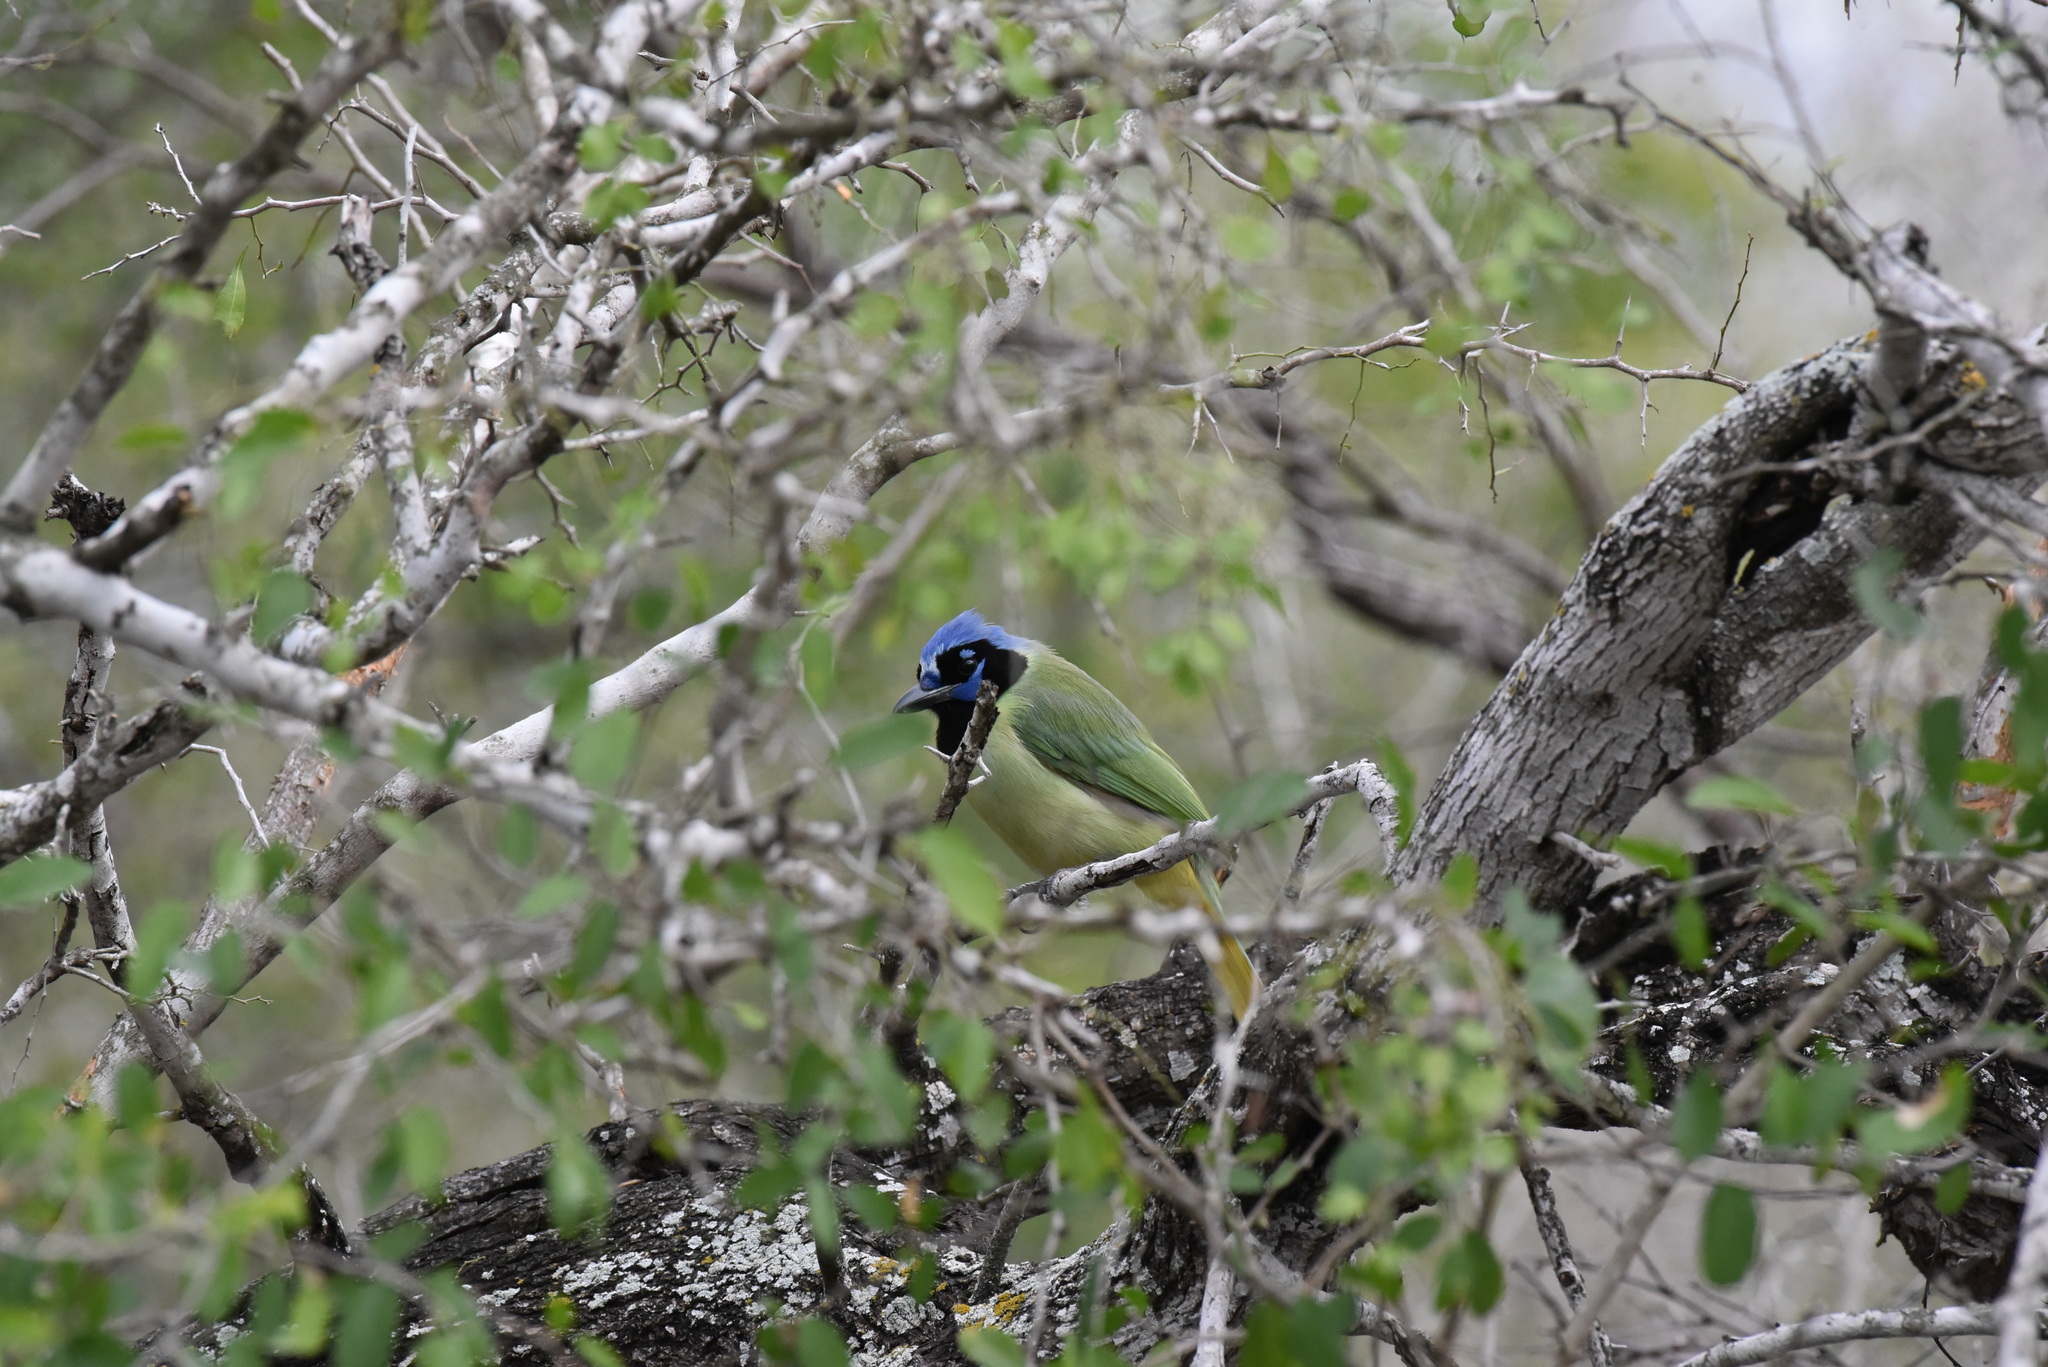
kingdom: Animalia
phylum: Chordata
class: Aves
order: Passeriformes
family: Corvidae
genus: Cyanocorax
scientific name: Cyanocorax yncas
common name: Green jay
